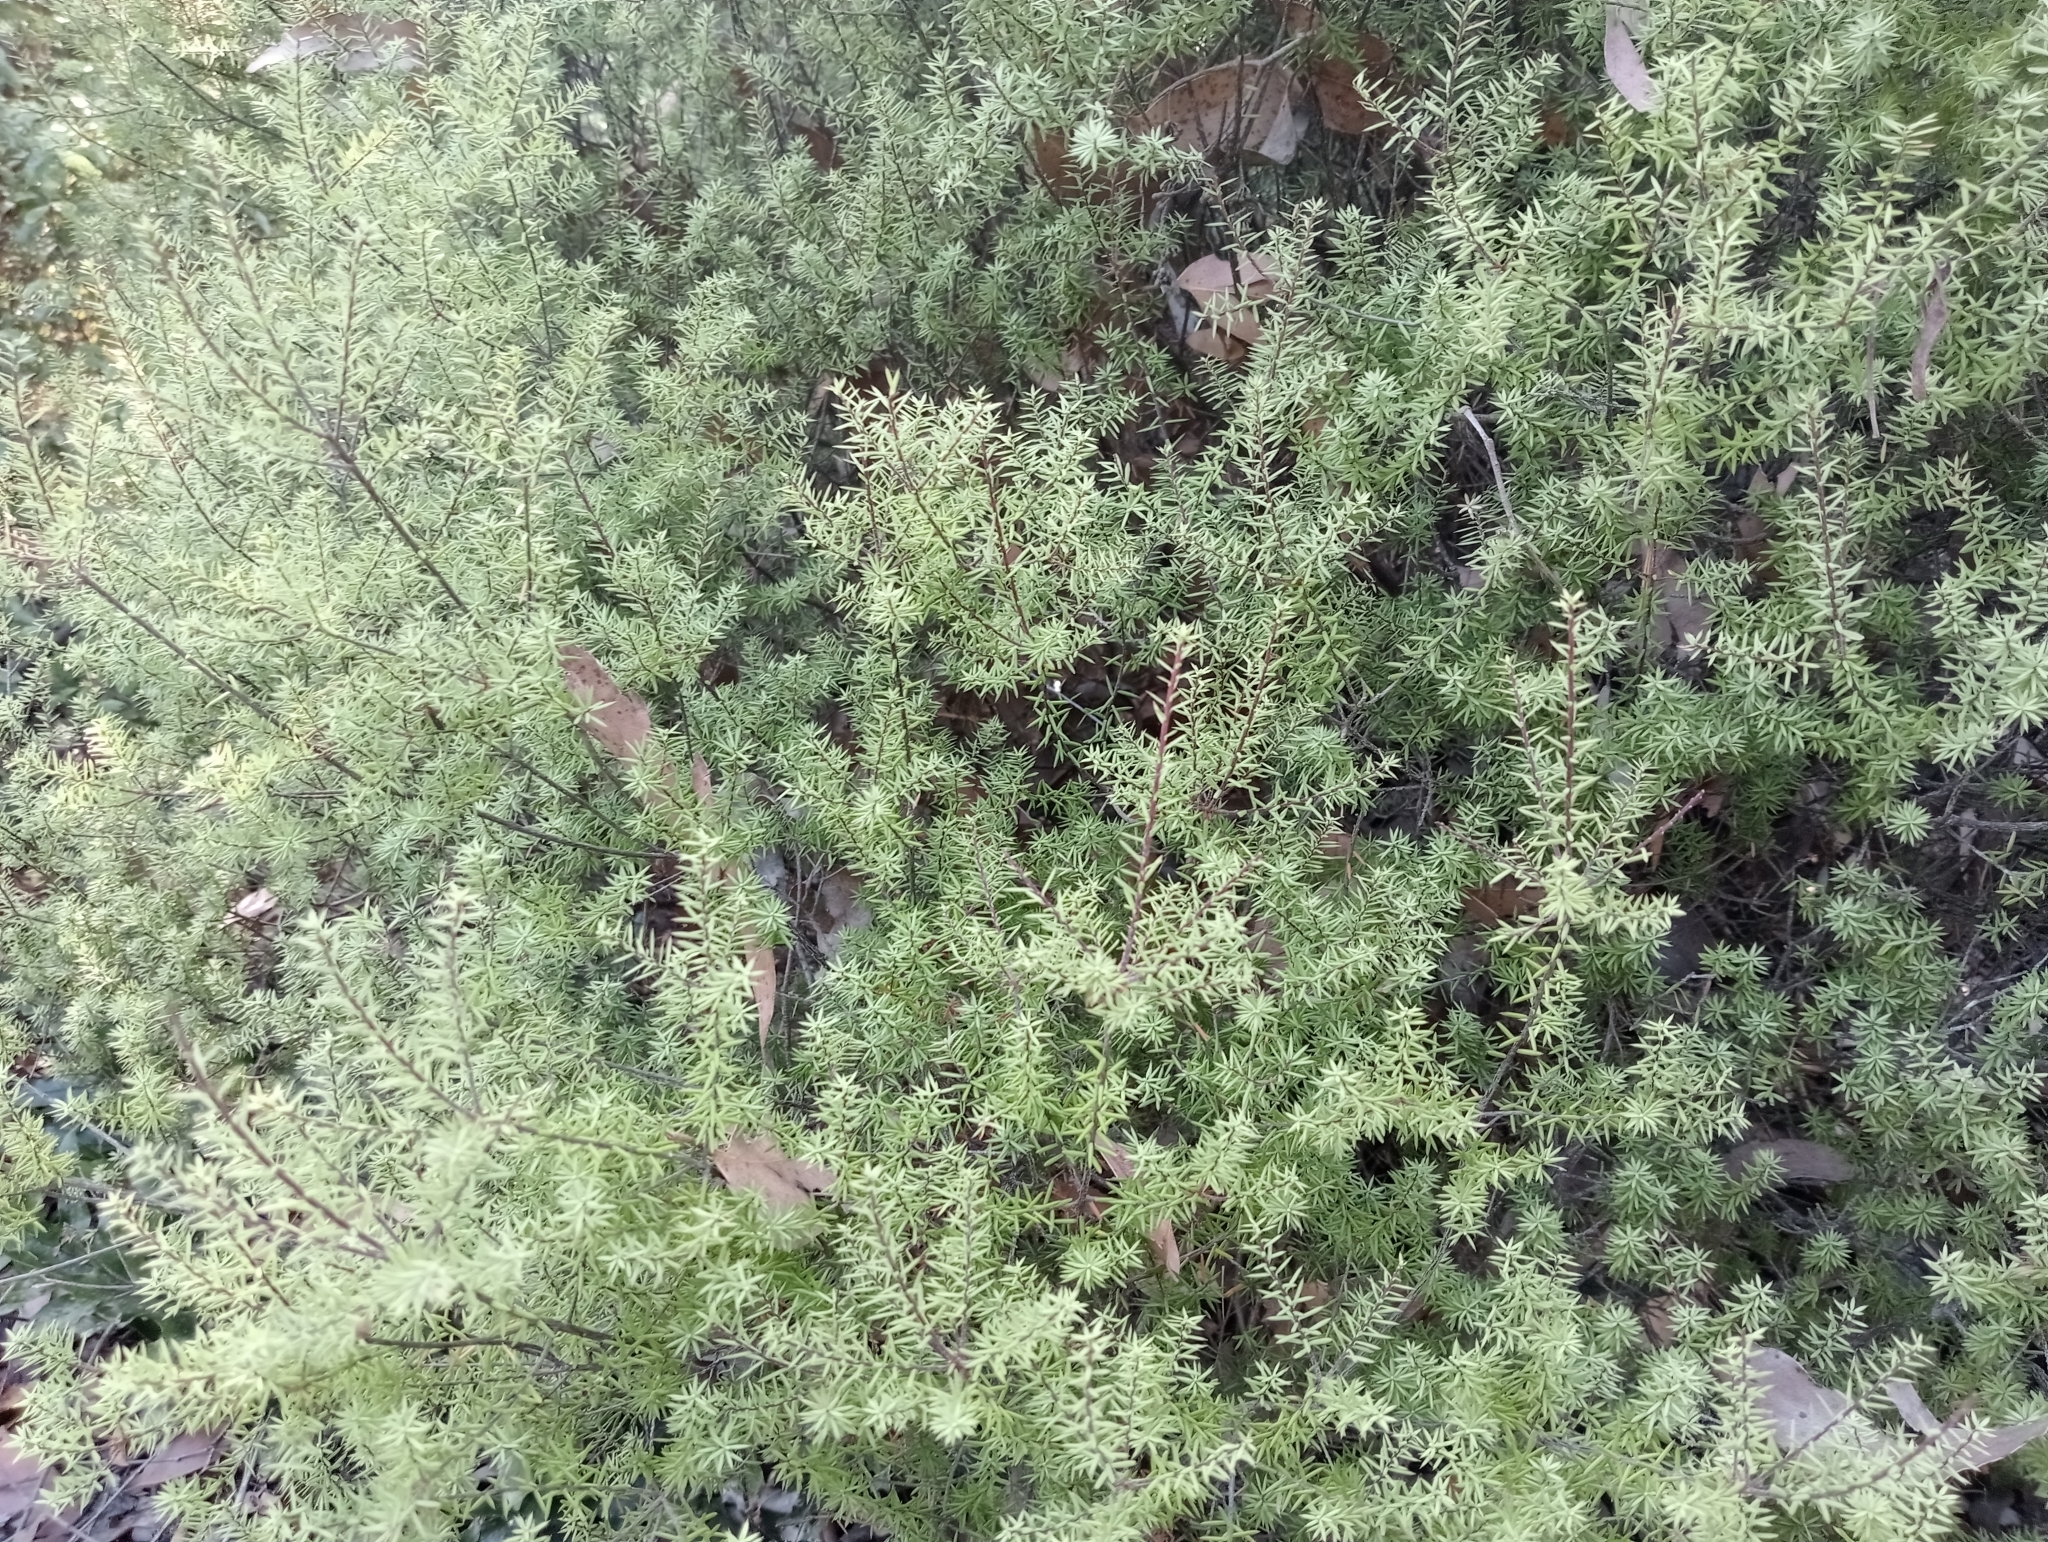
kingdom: Plantae
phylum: Tracheophyta
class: Magnoliopsida
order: Ericales
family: Ericaceae
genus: Leptecophylla
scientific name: Leptecophylla juniperina
